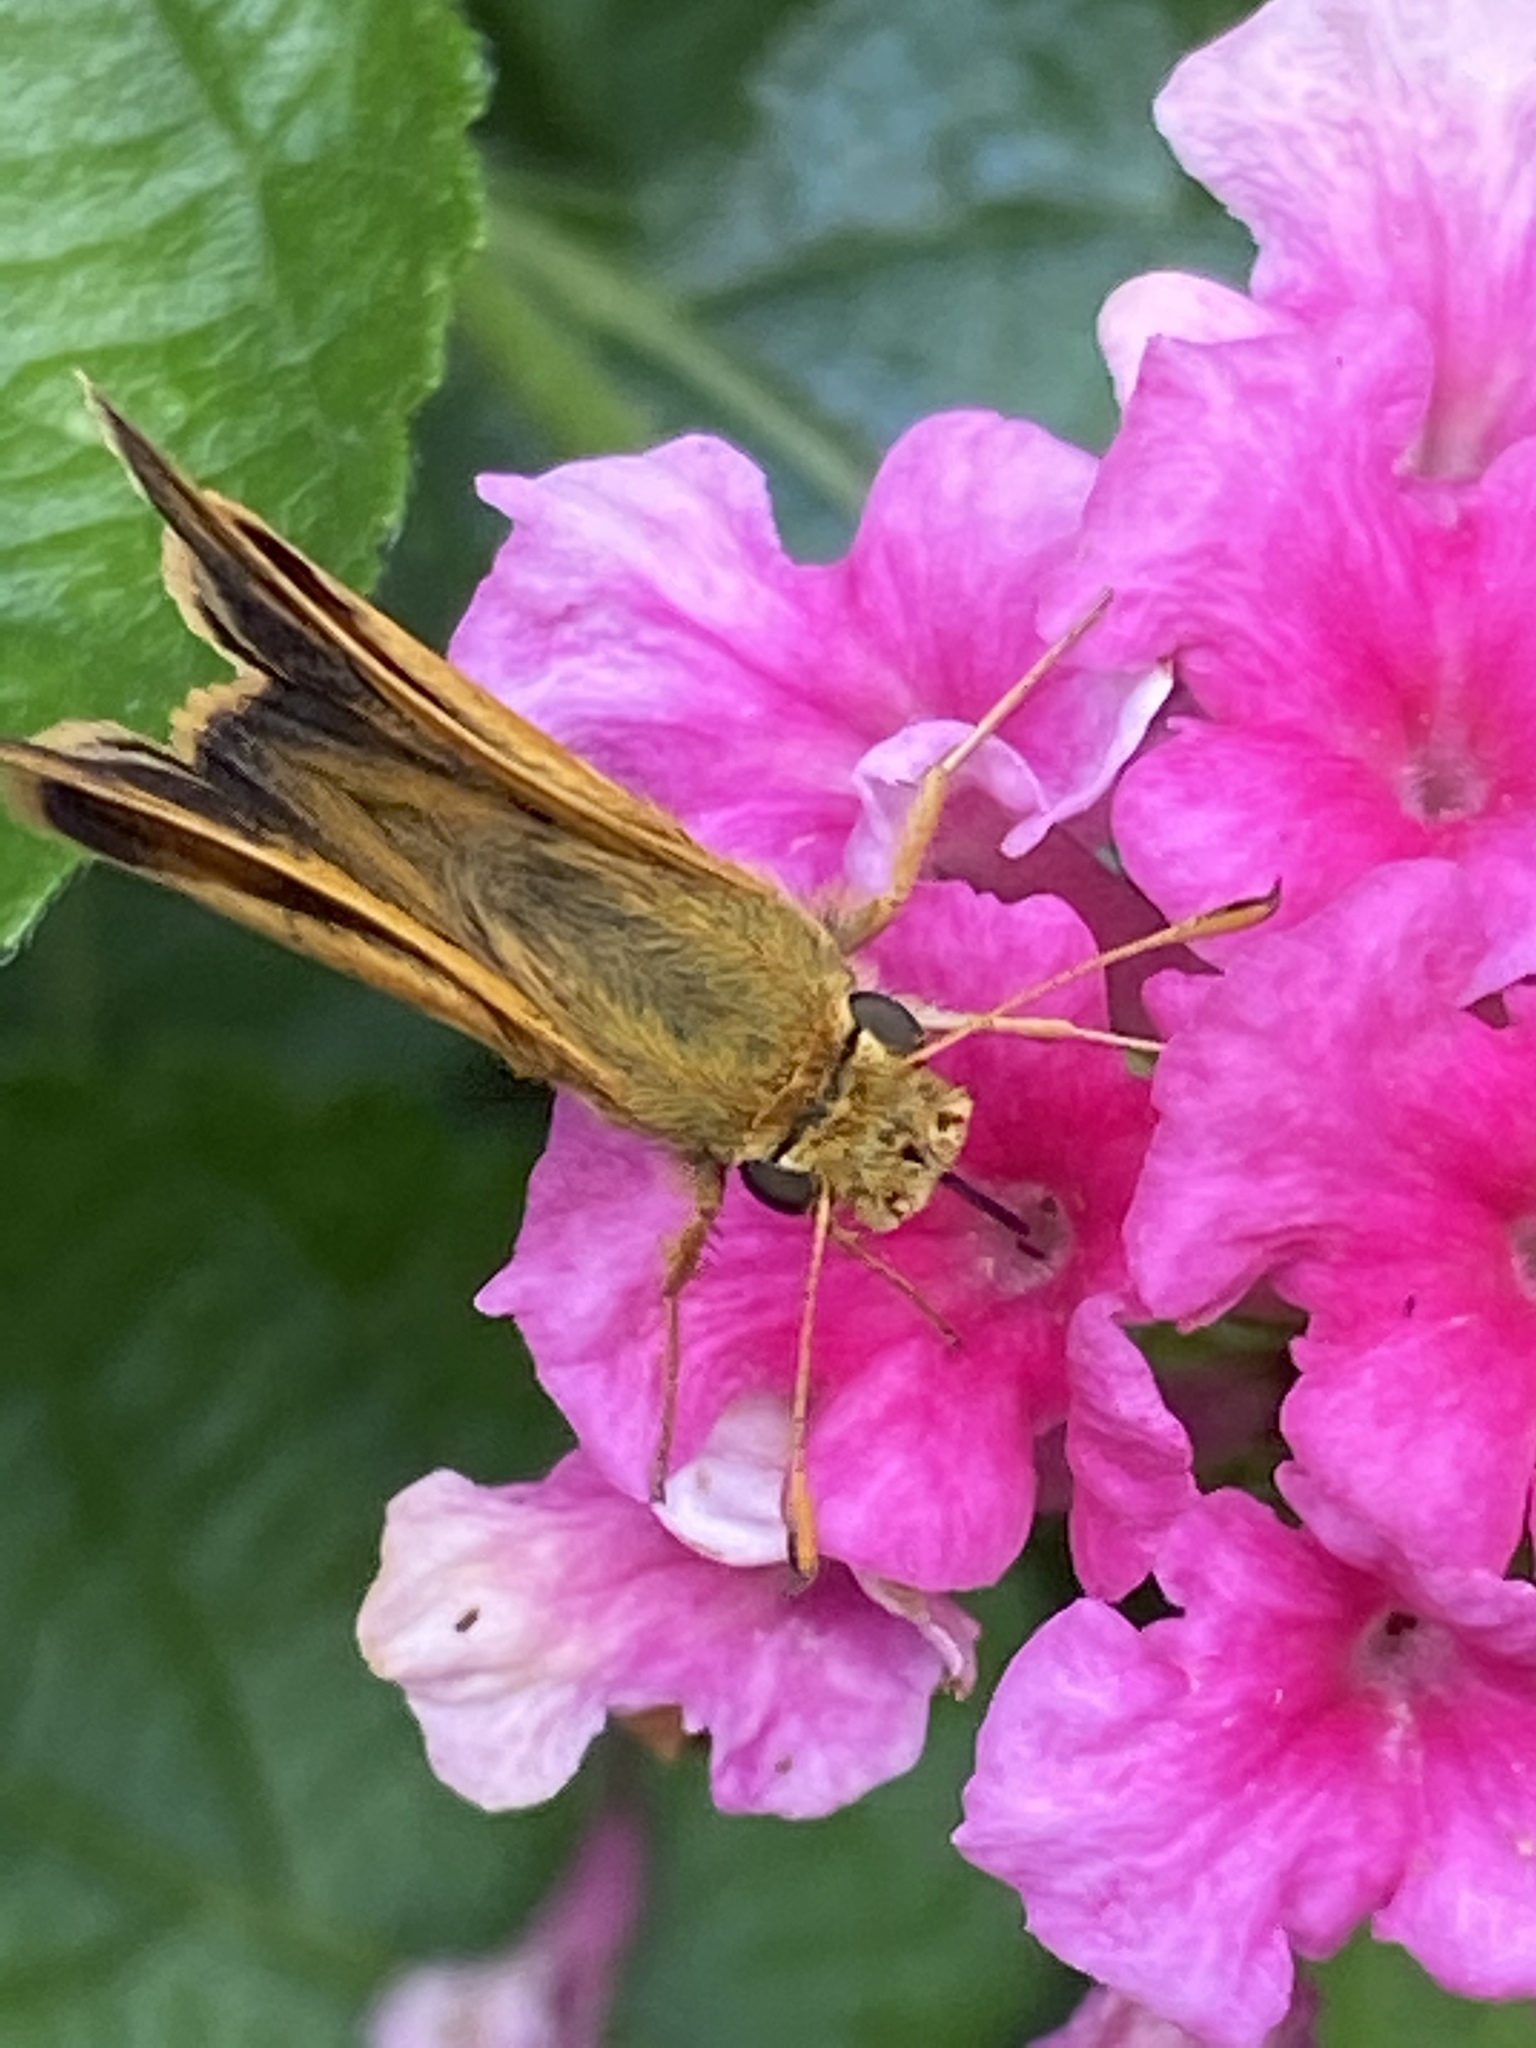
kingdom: Animalia
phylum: Arthropoda
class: Insecta
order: Lepidoptera
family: Hesperiidae
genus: Polites
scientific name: Polites coras
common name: Peck's skipper
